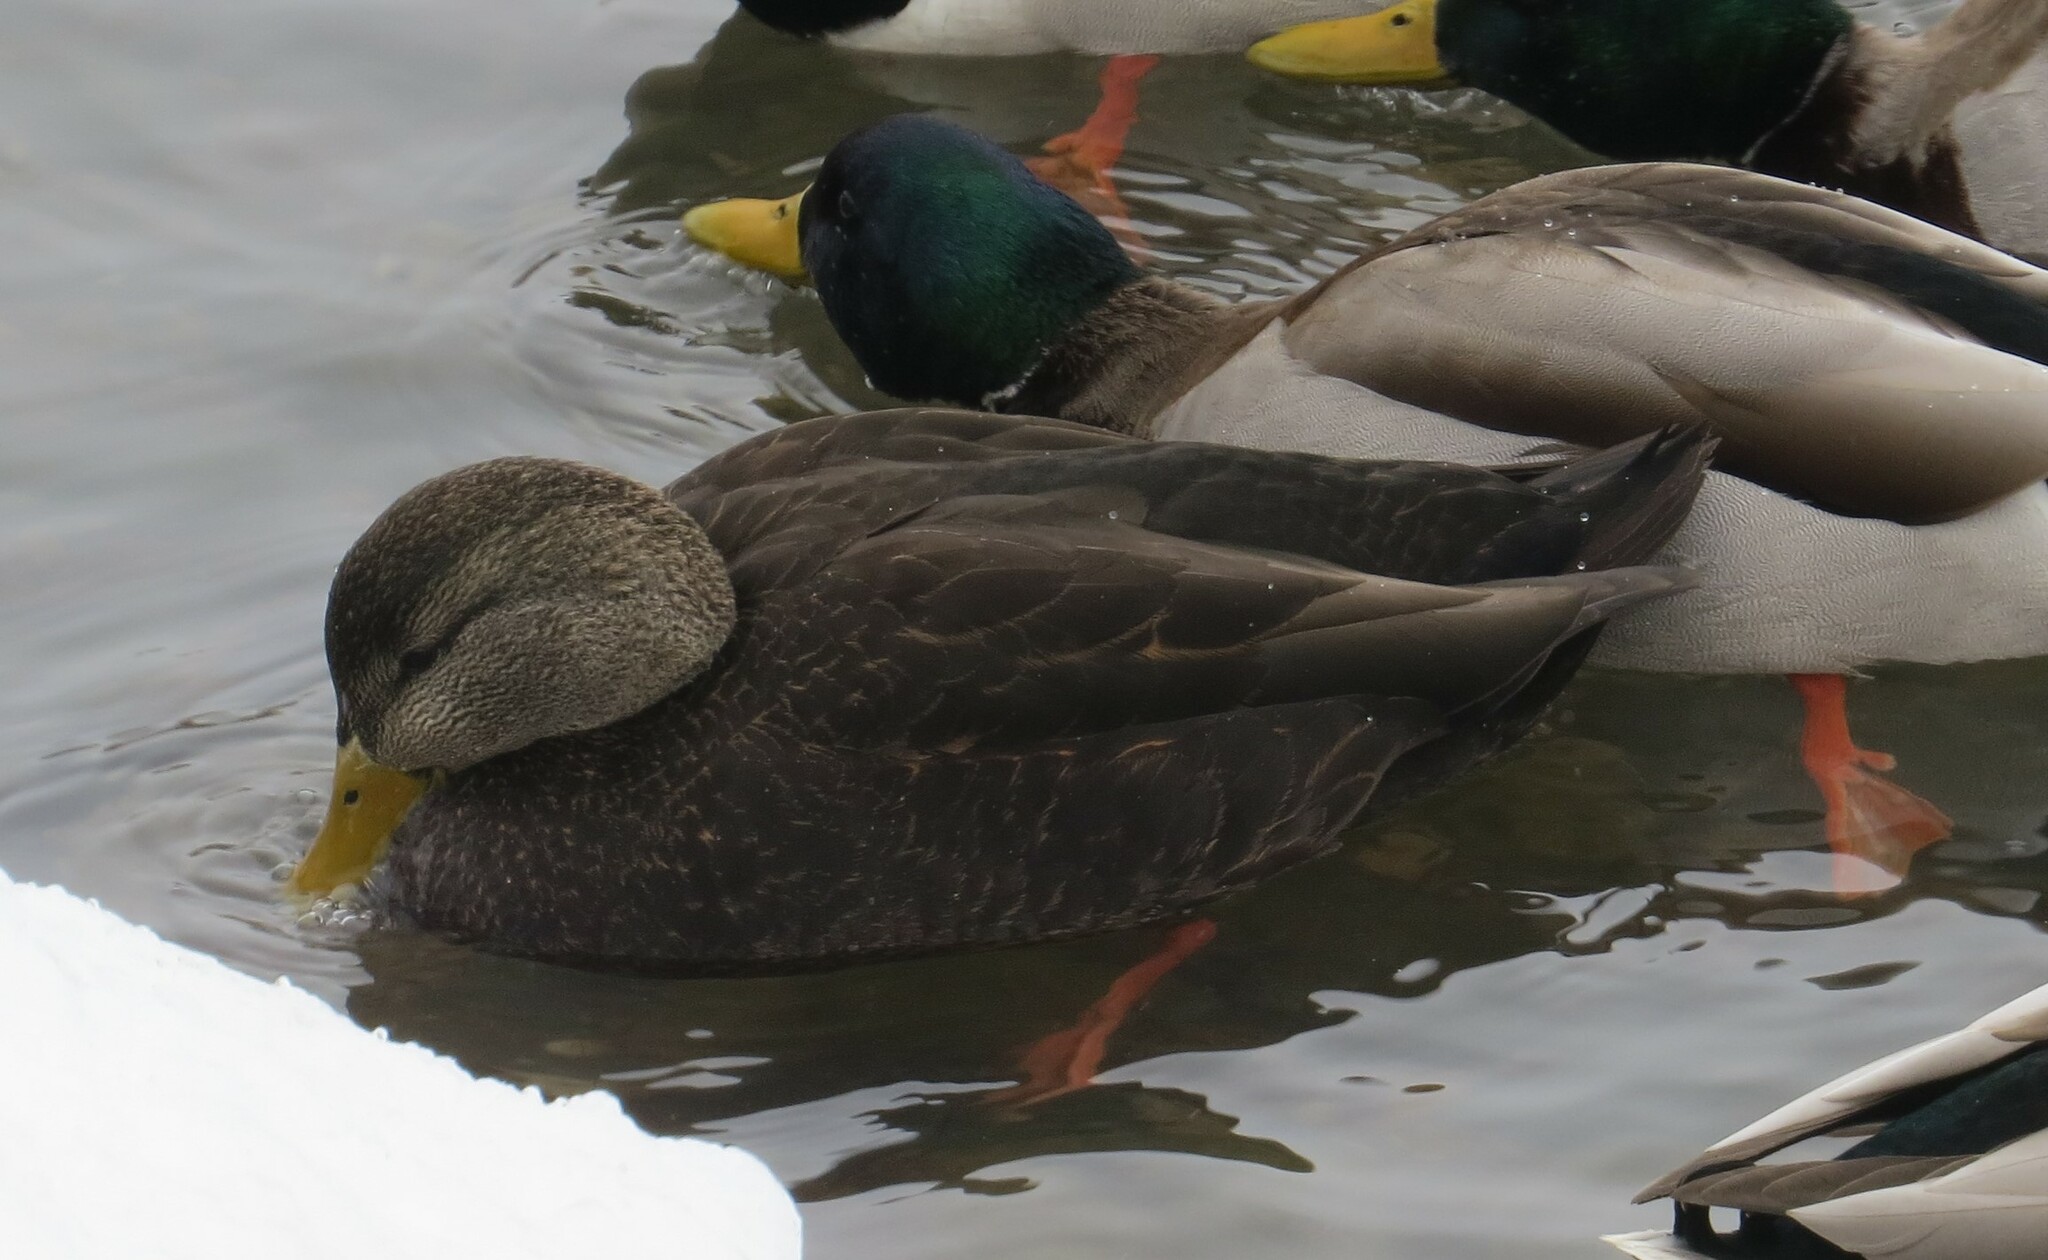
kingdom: Animalia
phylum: Chordata
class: Aves
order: Anseriformes
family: Anatidae
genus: Anas
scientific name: Anas rubripes
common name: American black duck
